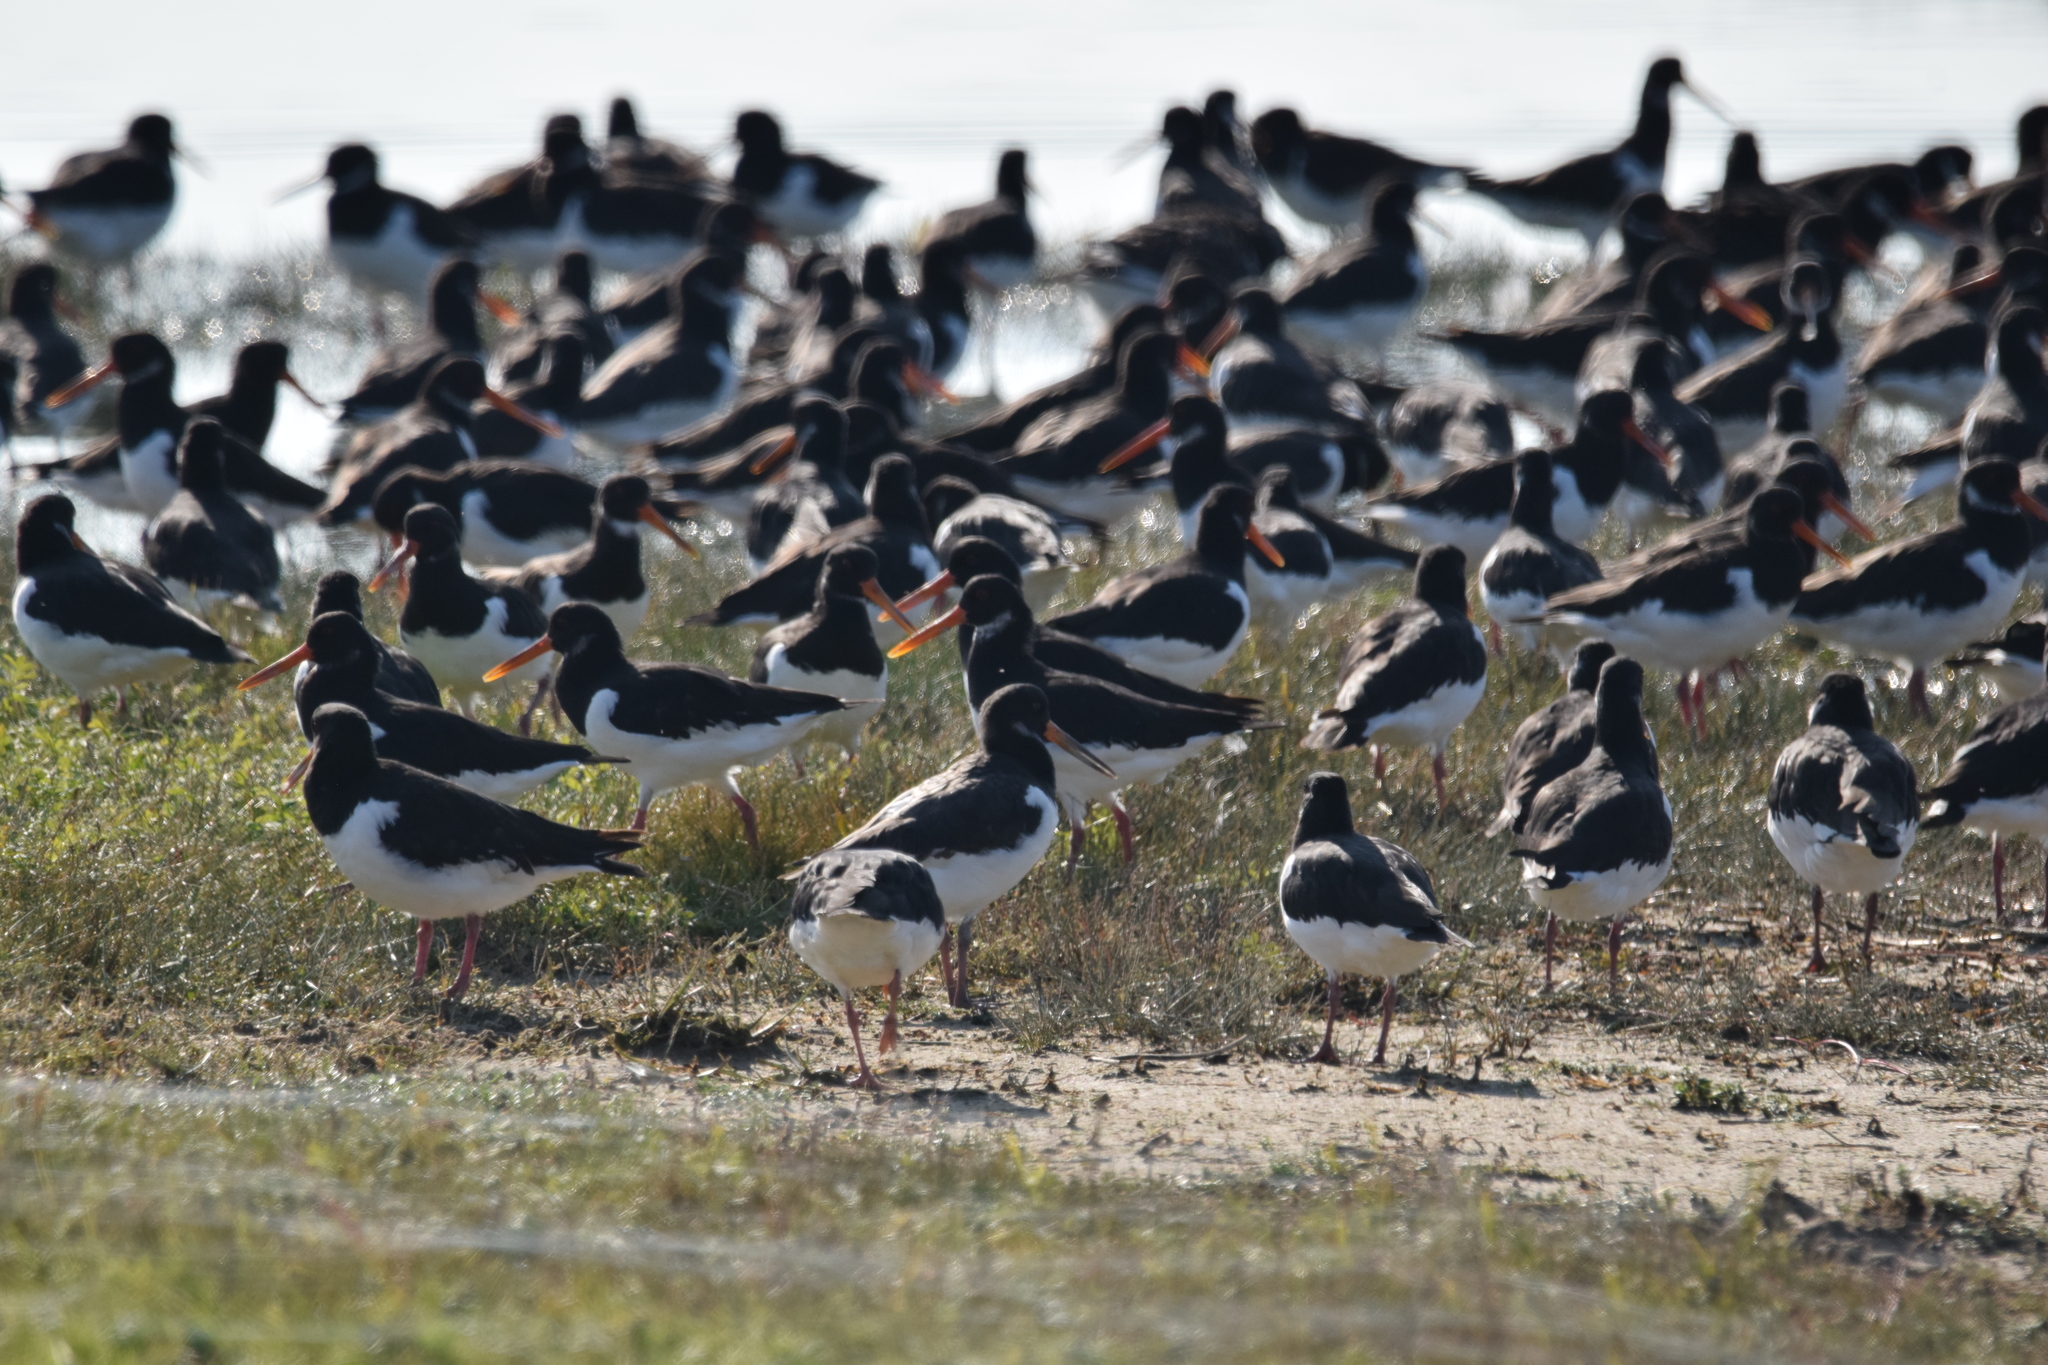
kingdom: Animalia
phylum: Chordata
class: Aves
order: Charadriiformes
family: Haematopodidae
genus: Haematopus
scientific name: Haematopus ostralegus
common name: Eurasian oystercatcher
